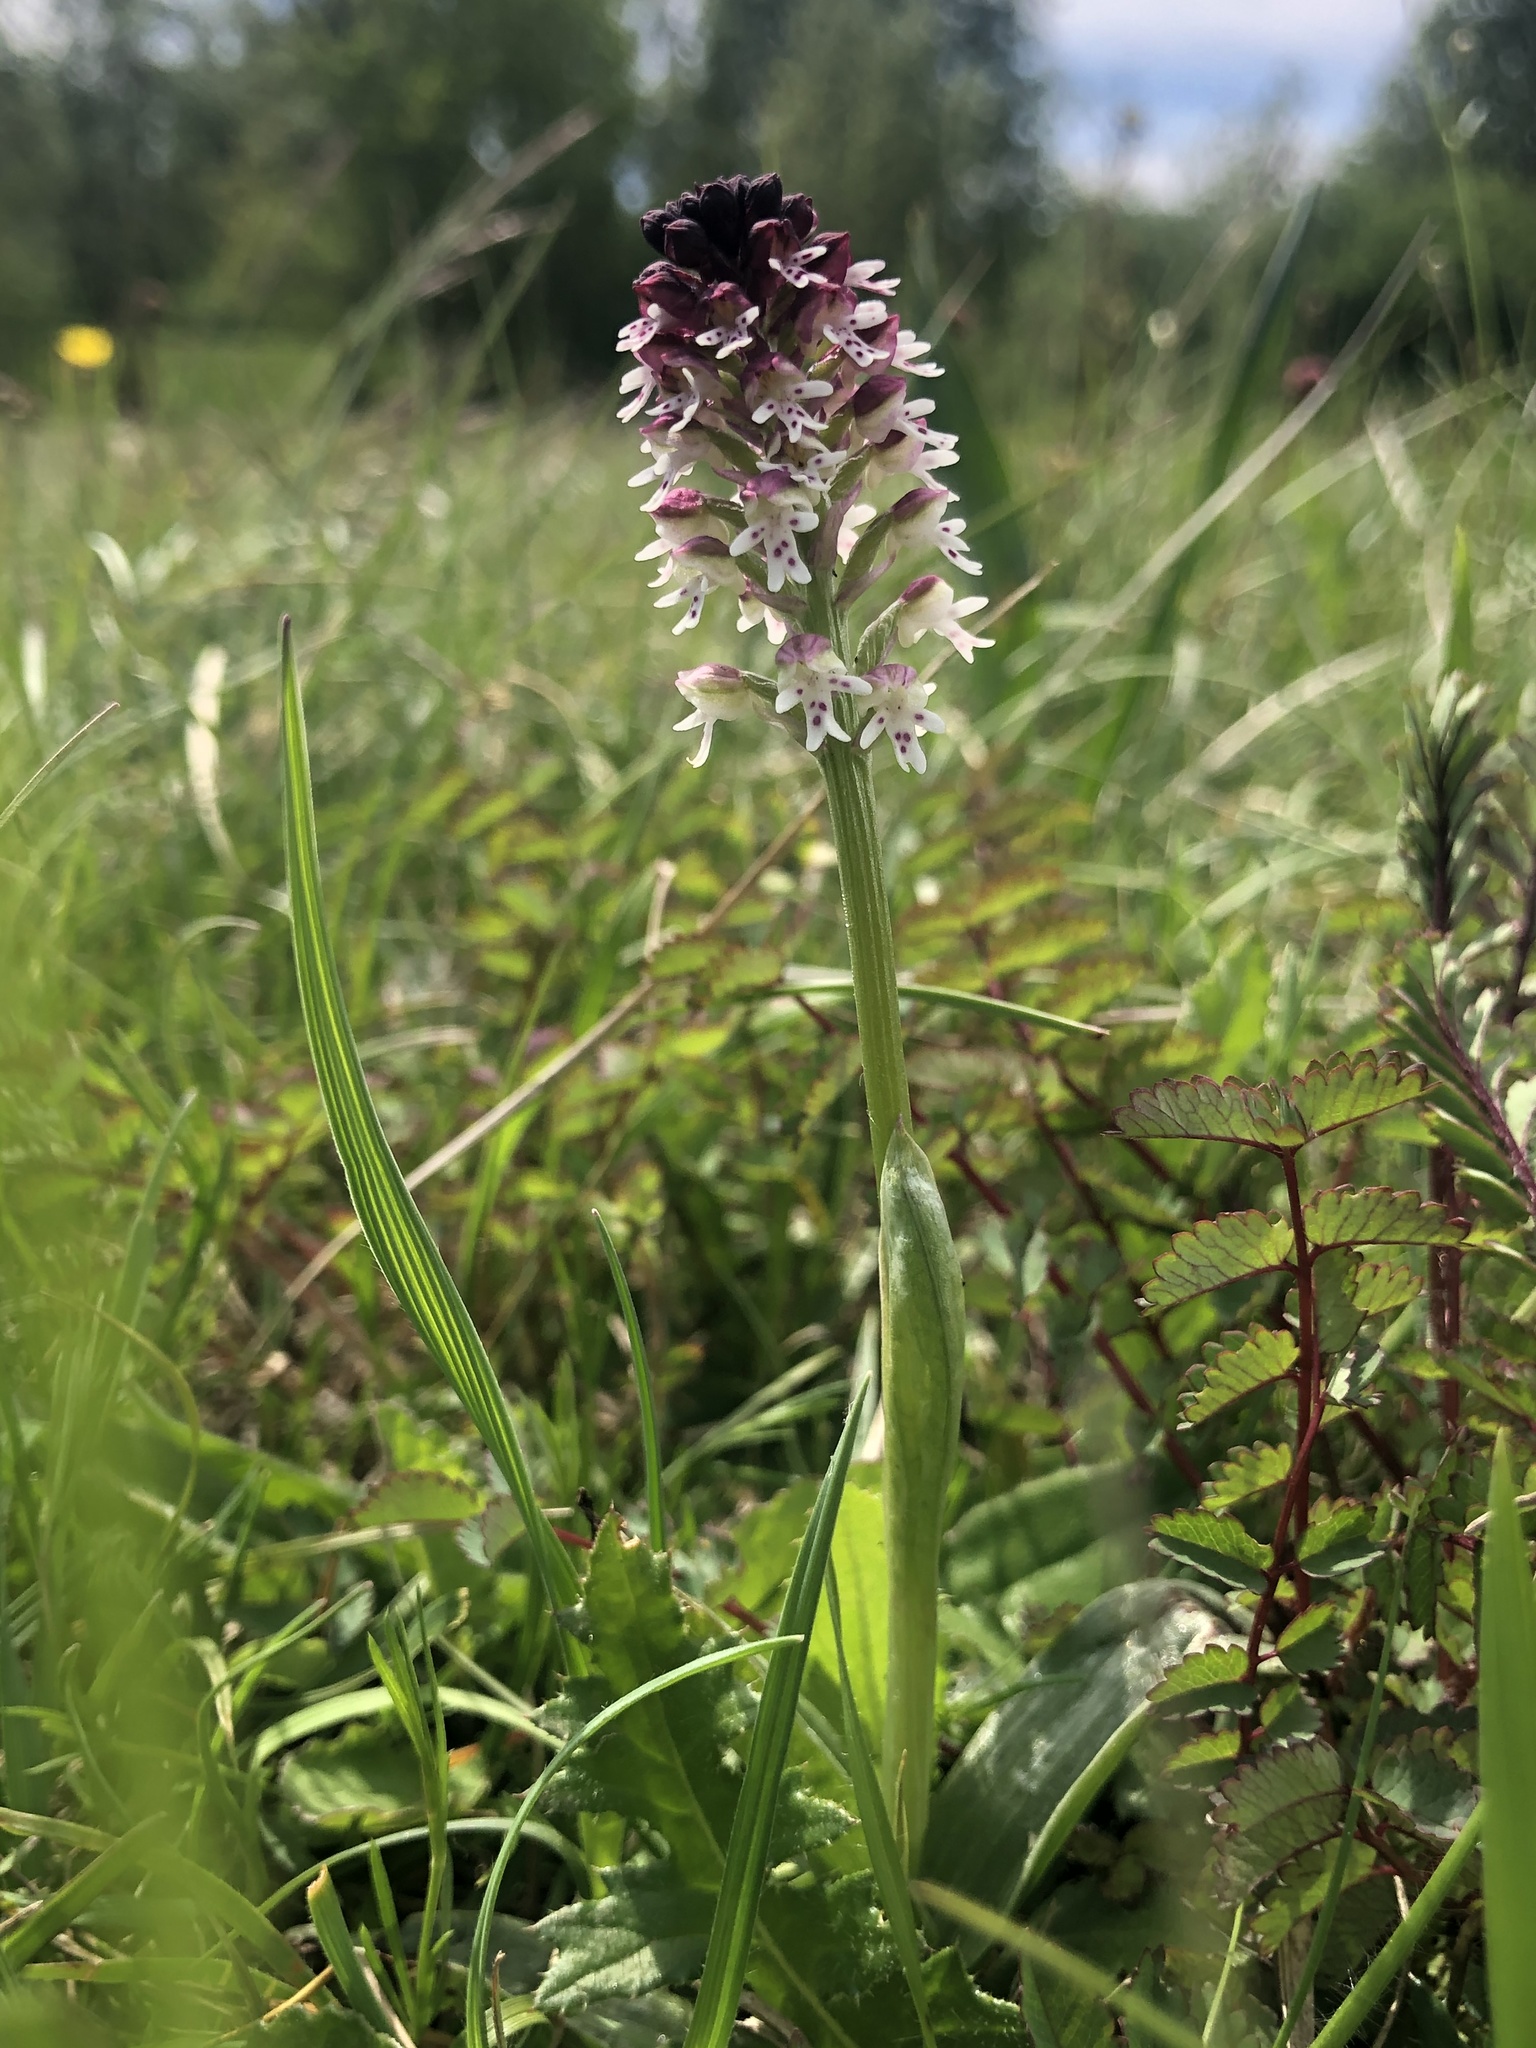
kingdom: Plantae
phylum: Tracheophyta
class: Liliopsida
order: Asparagales
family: Orchidaceae
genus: Neotinea
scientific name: Neotinea ustulata
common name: Burnt orchid
